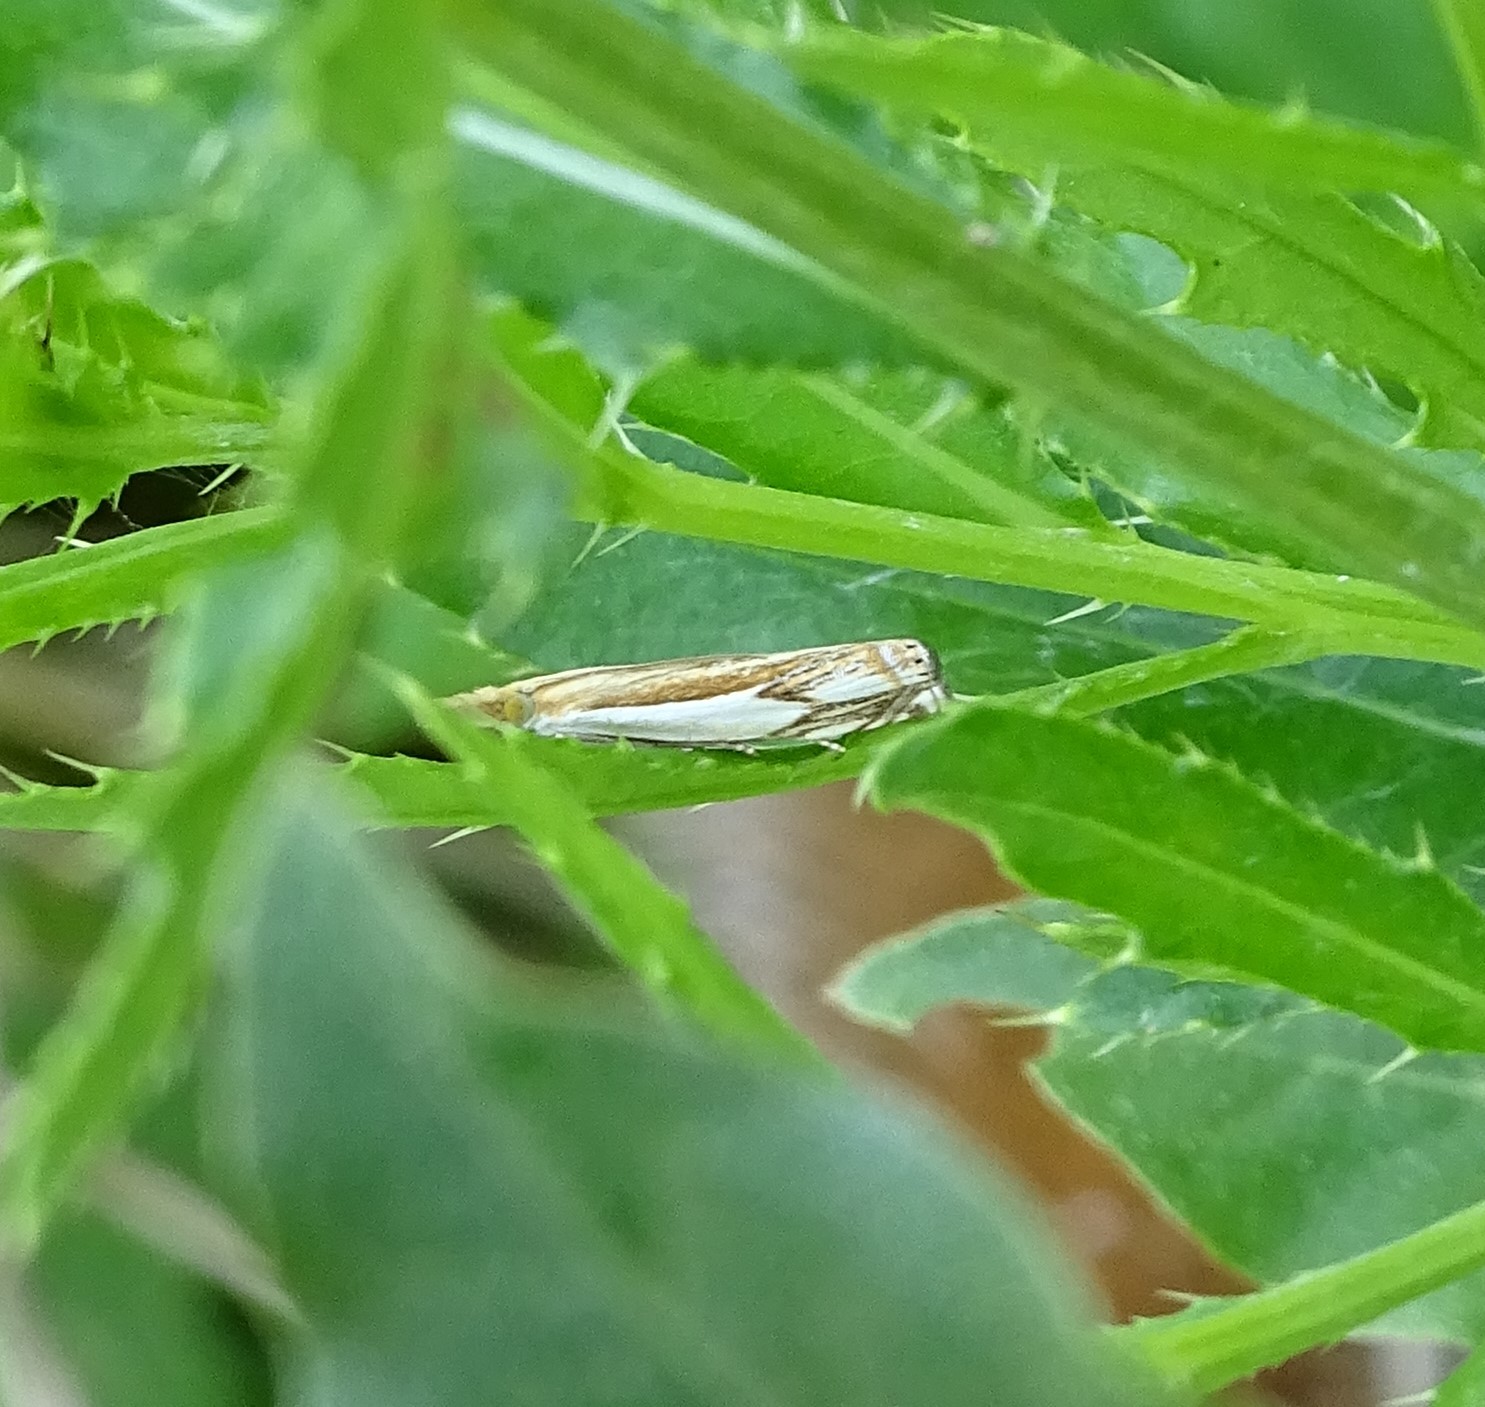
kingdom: Animalia
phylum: Arthropoda
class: Insecta
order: Lepidoptera
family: Crambidae
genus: Crambus
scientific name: Crambus agitatellus
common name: Double-banded grass-veneer
